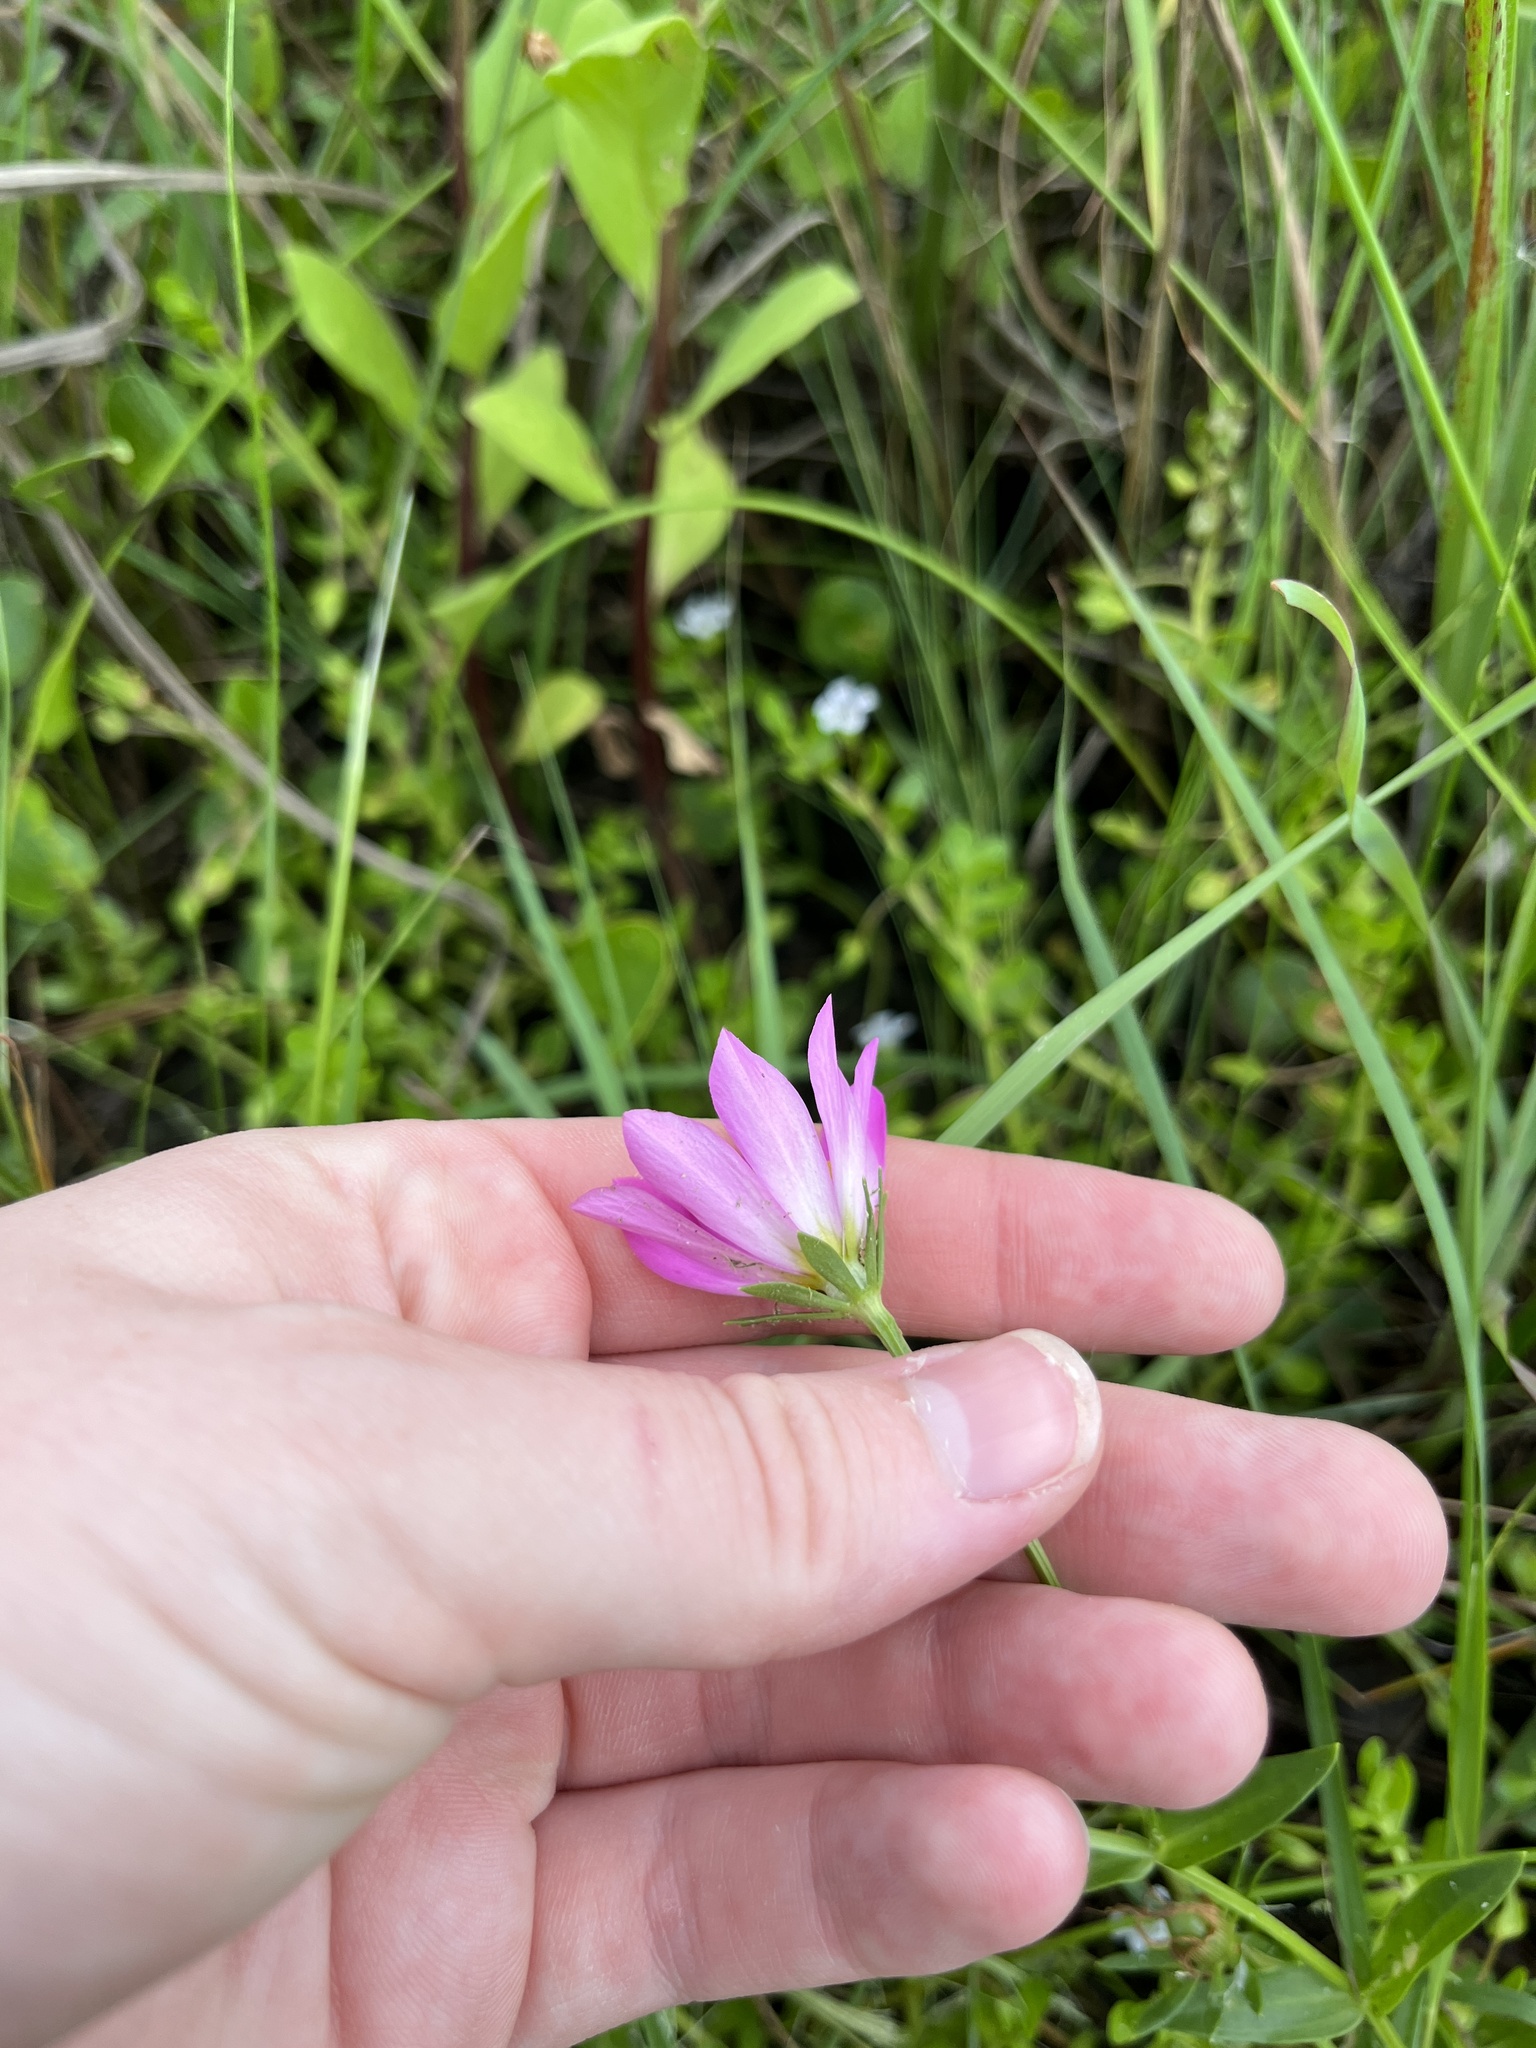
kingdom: Plantae
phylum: Tracheophyta
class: Magnoliopsida
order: Gentianales
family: Gentianaceae
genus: Sabatia
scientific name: Sabatia dodecandra
